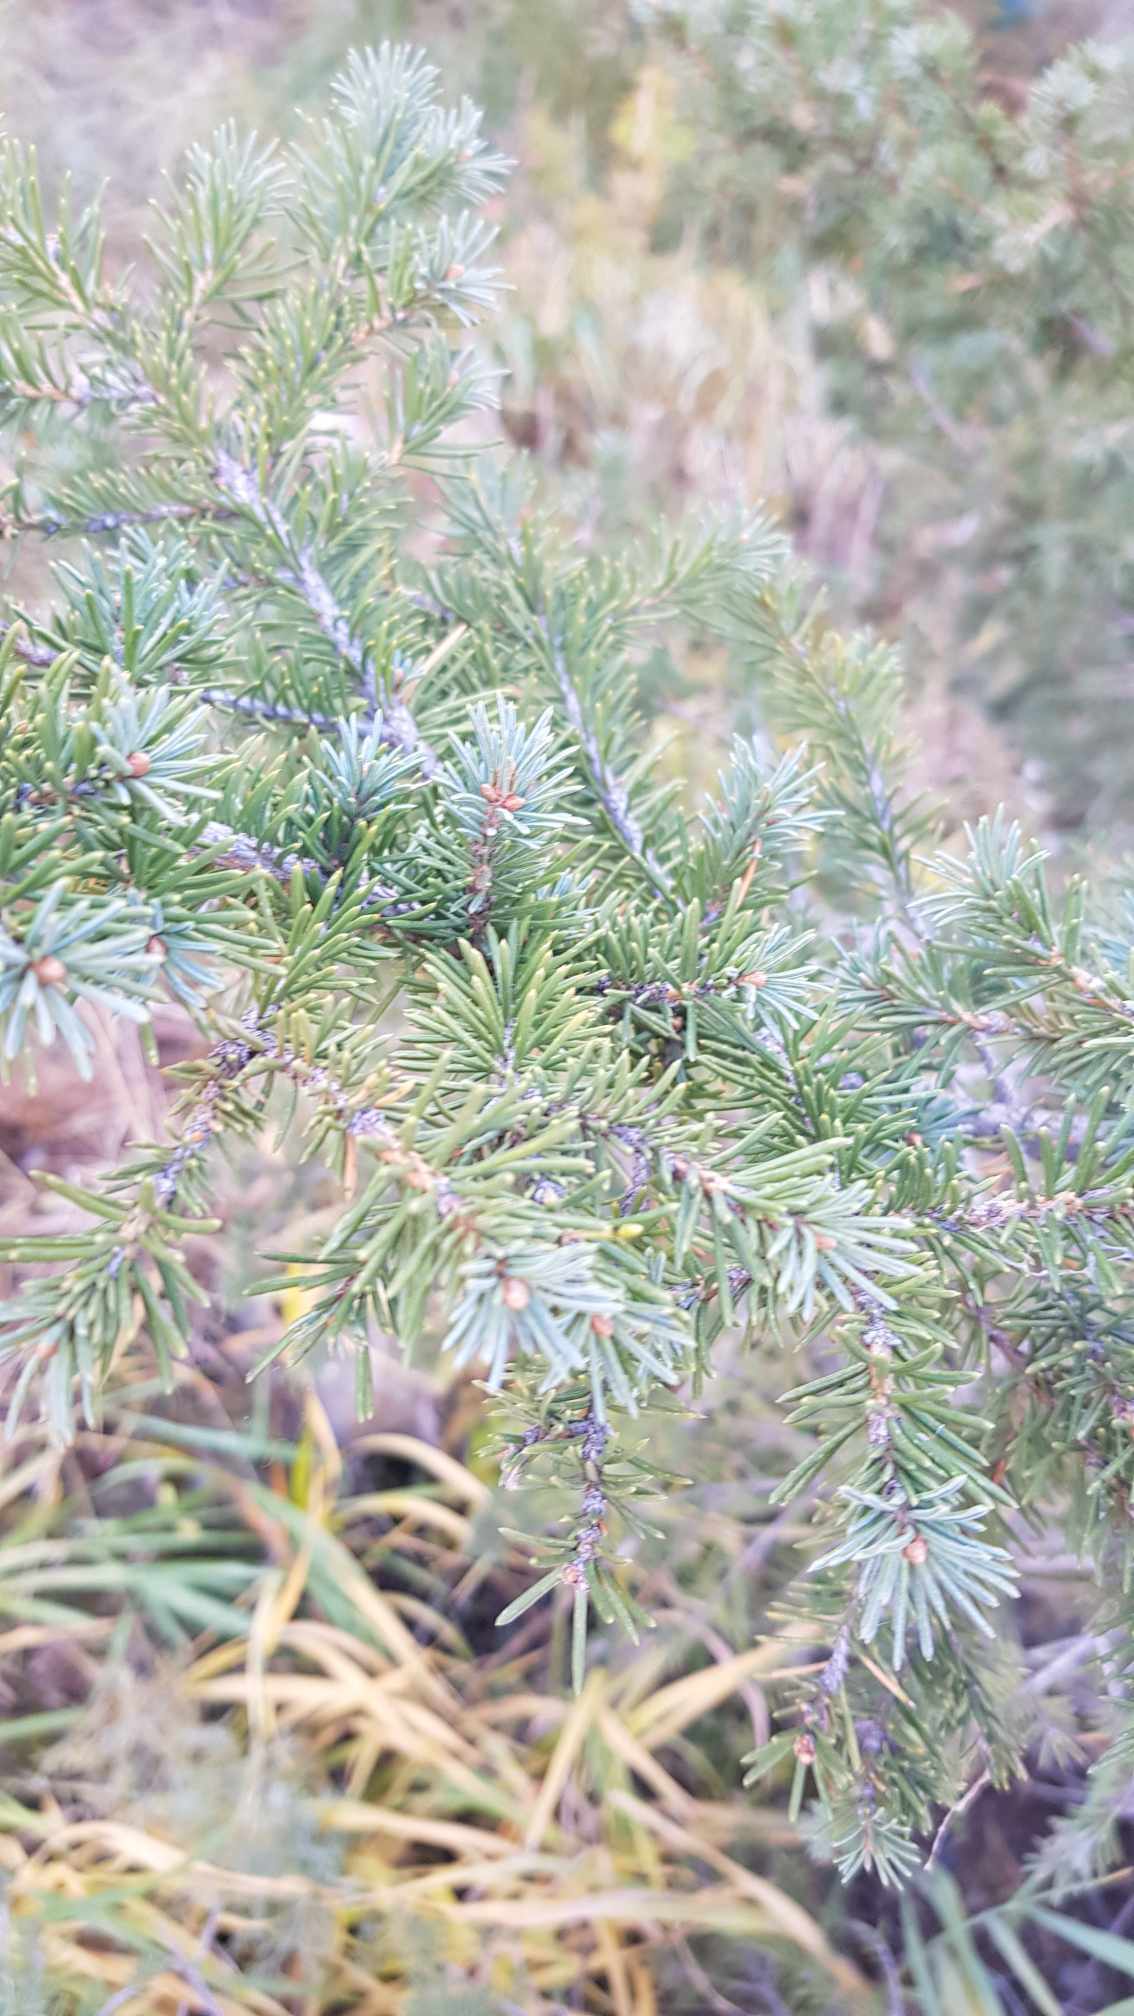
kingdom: Plantae
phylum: Tracheophyta
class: Pinopsida
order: Pinales
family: Pinaceae
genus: Picea
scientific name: Picea obovata
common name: Siberian spruce
